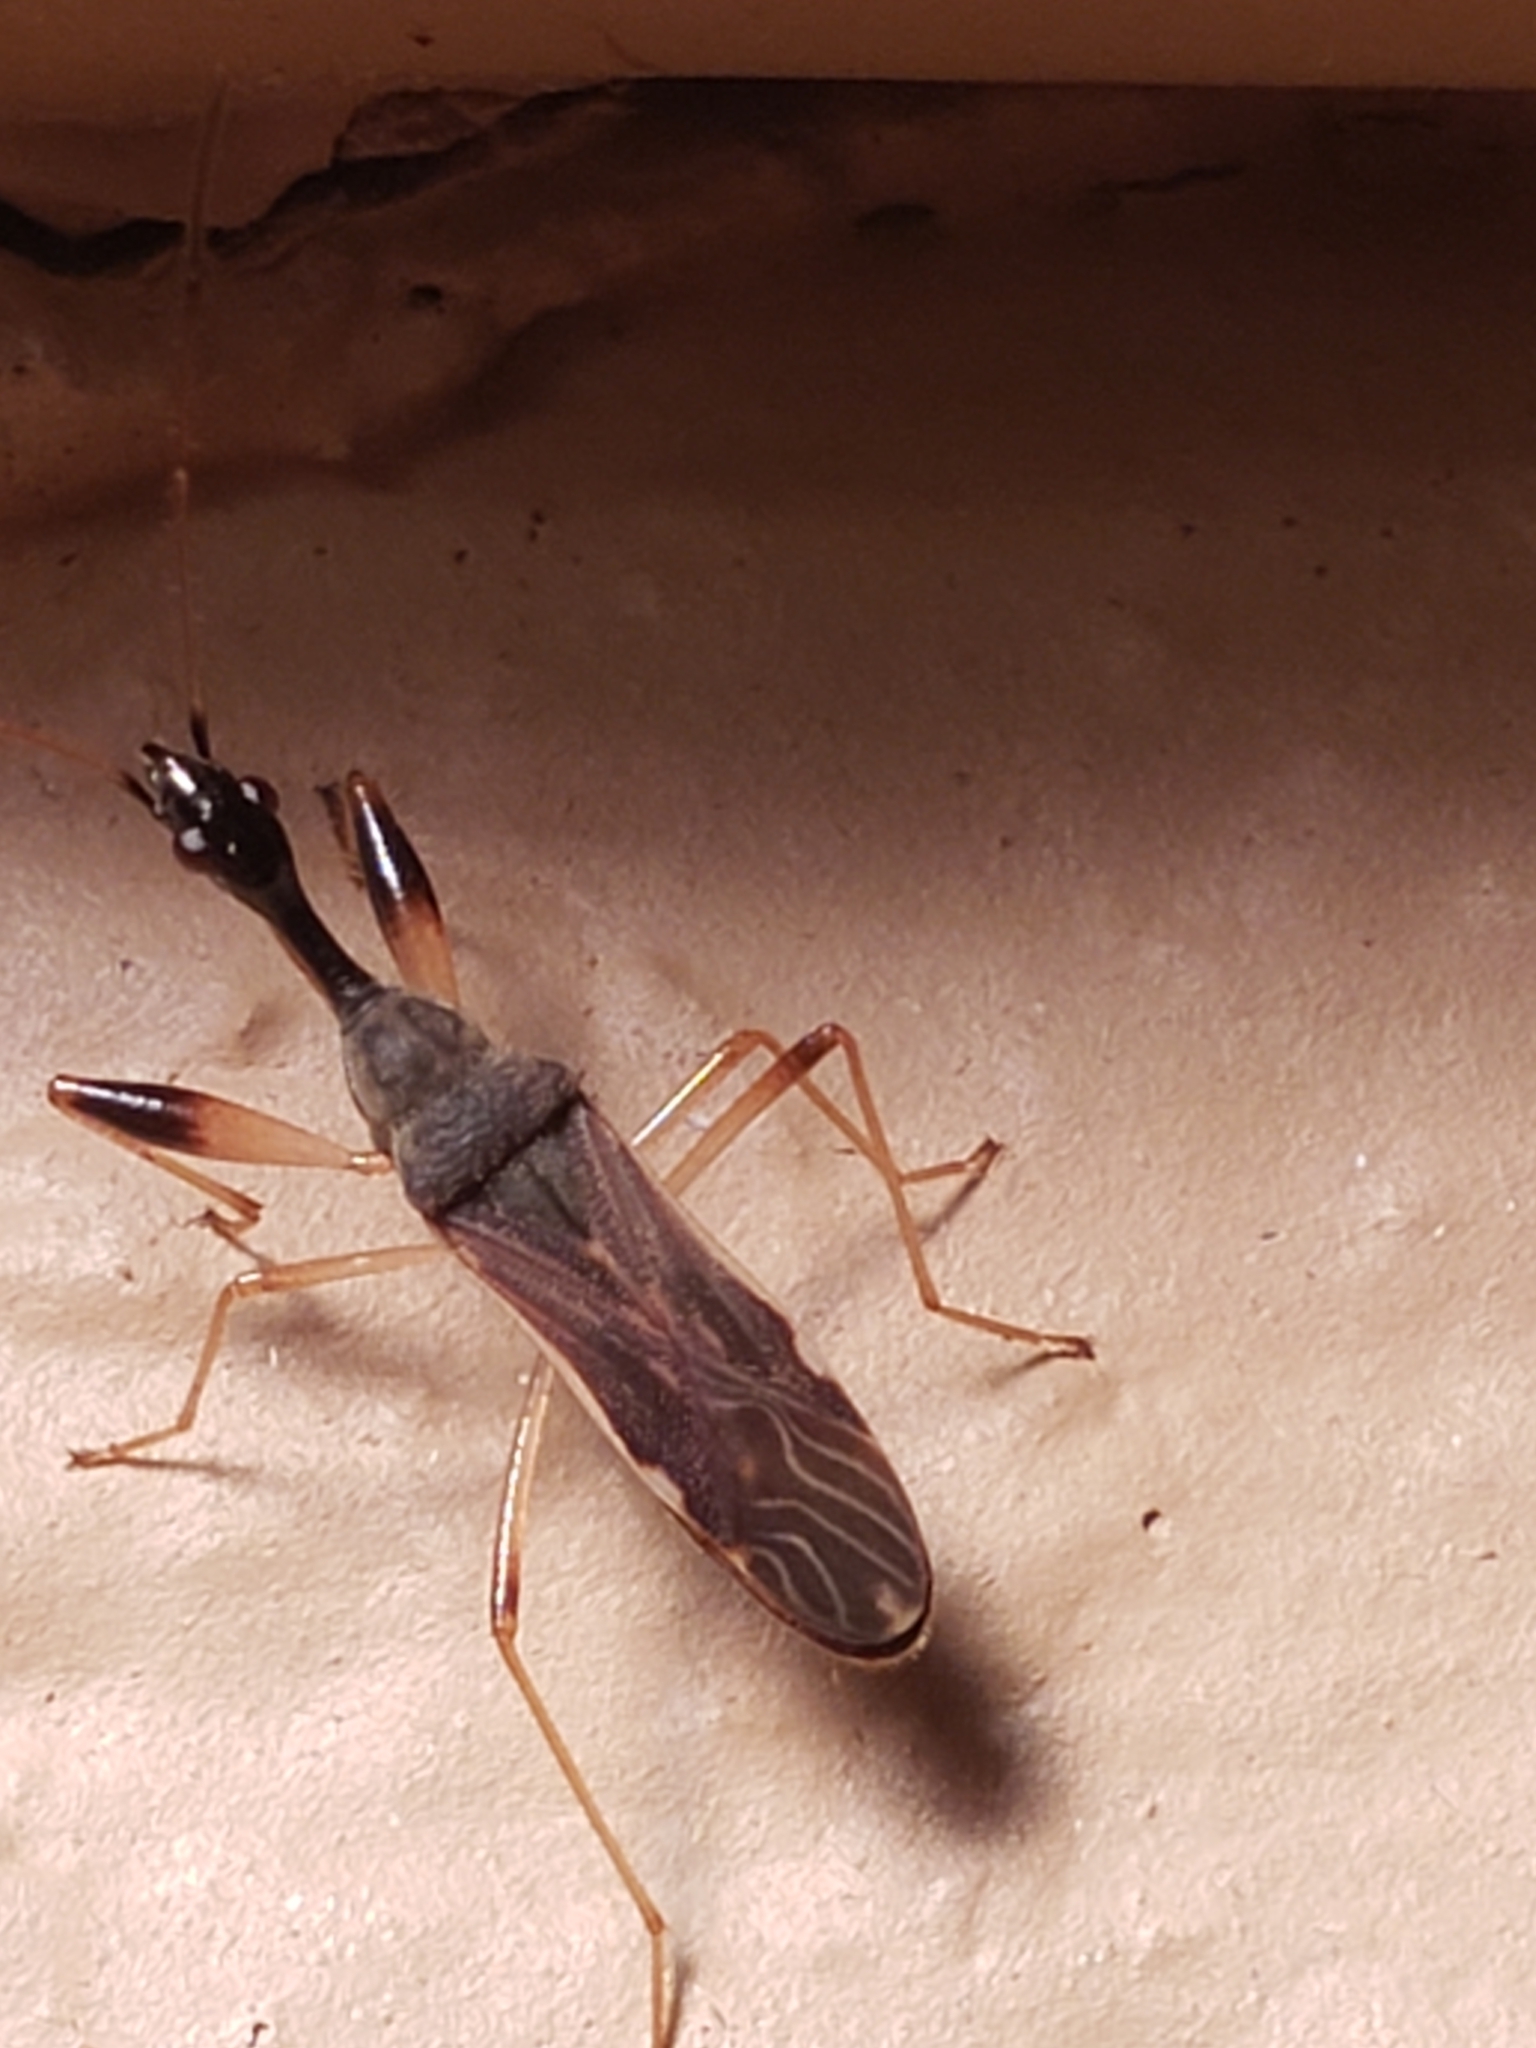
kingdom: Animalia
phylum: Arthropoda
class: Insecta
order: Hemiptera
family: Rhyparochromidae
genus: Myodocha
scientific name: Myodocha serripes
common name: Long-necked seed bug
